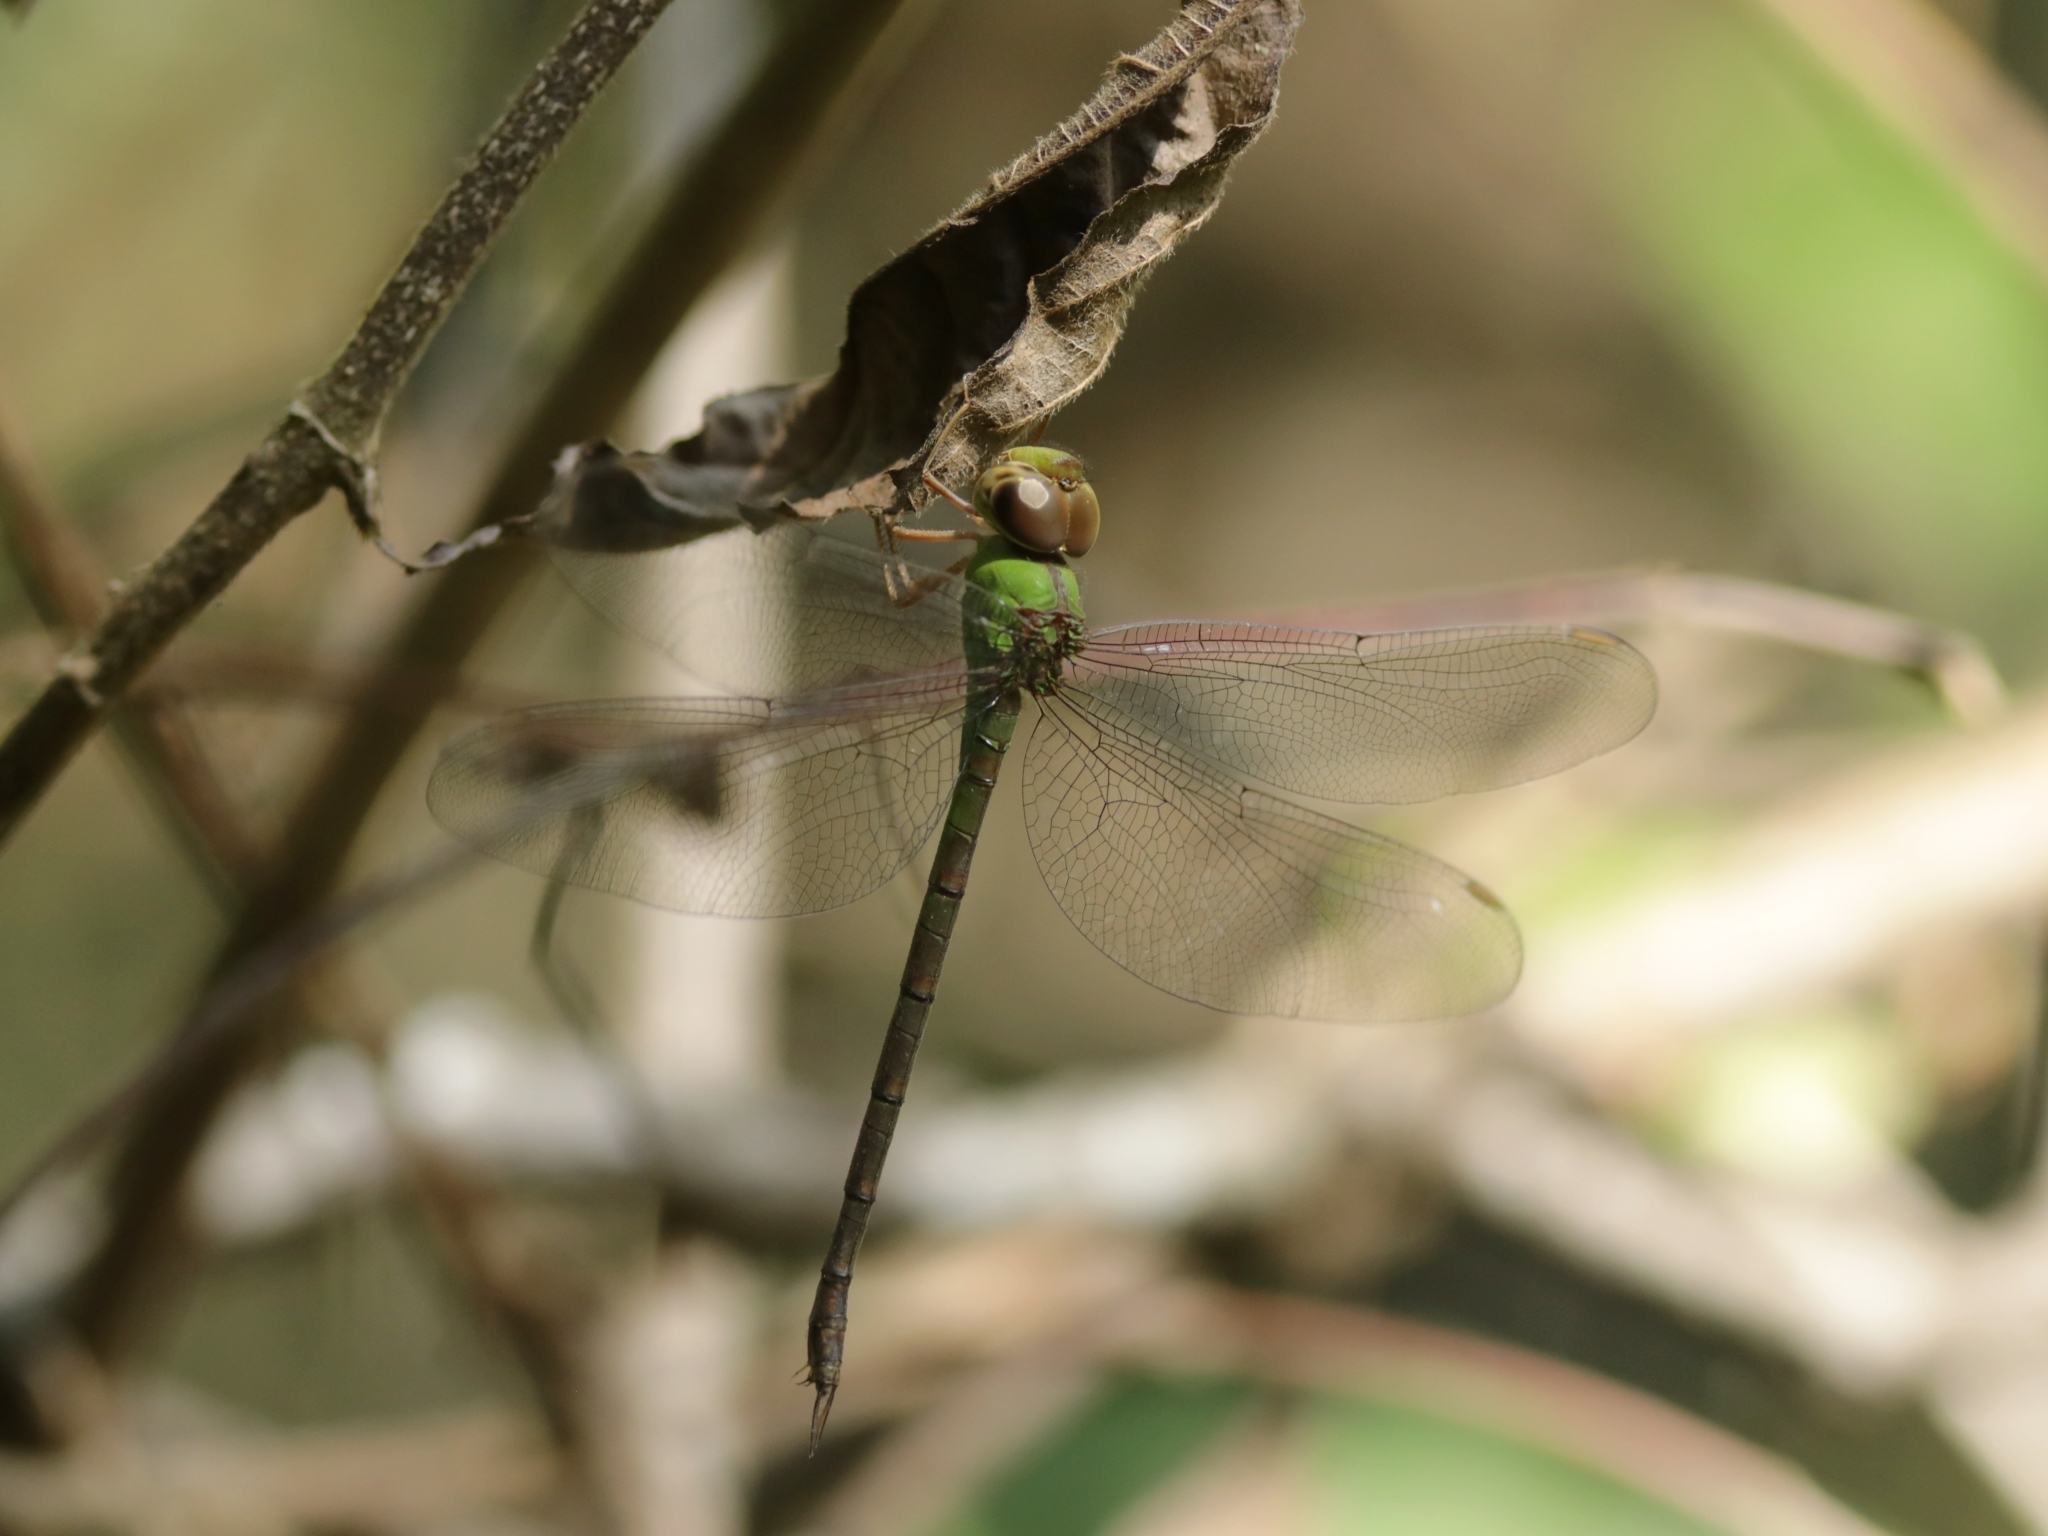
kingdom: Animalia
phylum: Arthropoda
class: Insecta
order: Odonata
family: Aeshnidae
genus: Gynacantha
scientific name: Gynacantha bayadera
